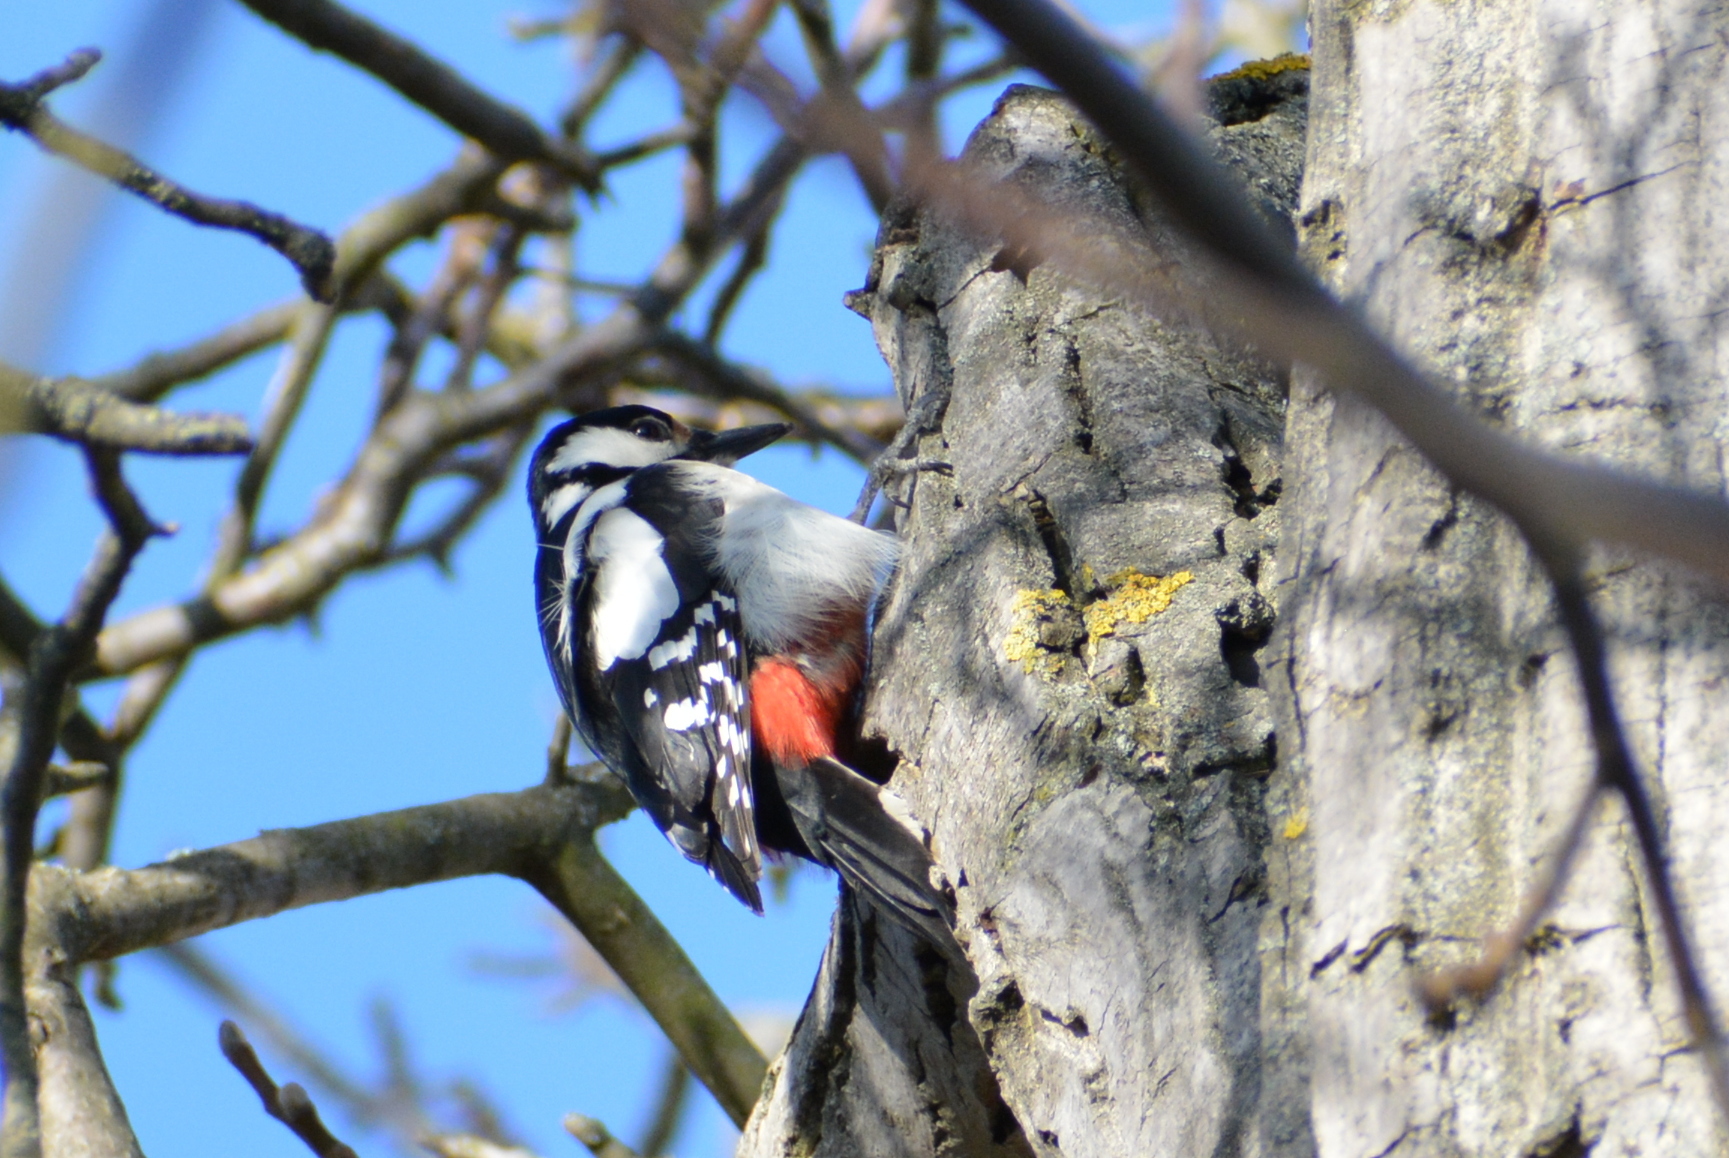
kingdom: Animalia
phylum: Chordata
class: Aves
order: Piciformes
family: Picidae
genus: Dendrocopos
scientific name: Dendrocopos major
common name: Great spotted woodpecker
